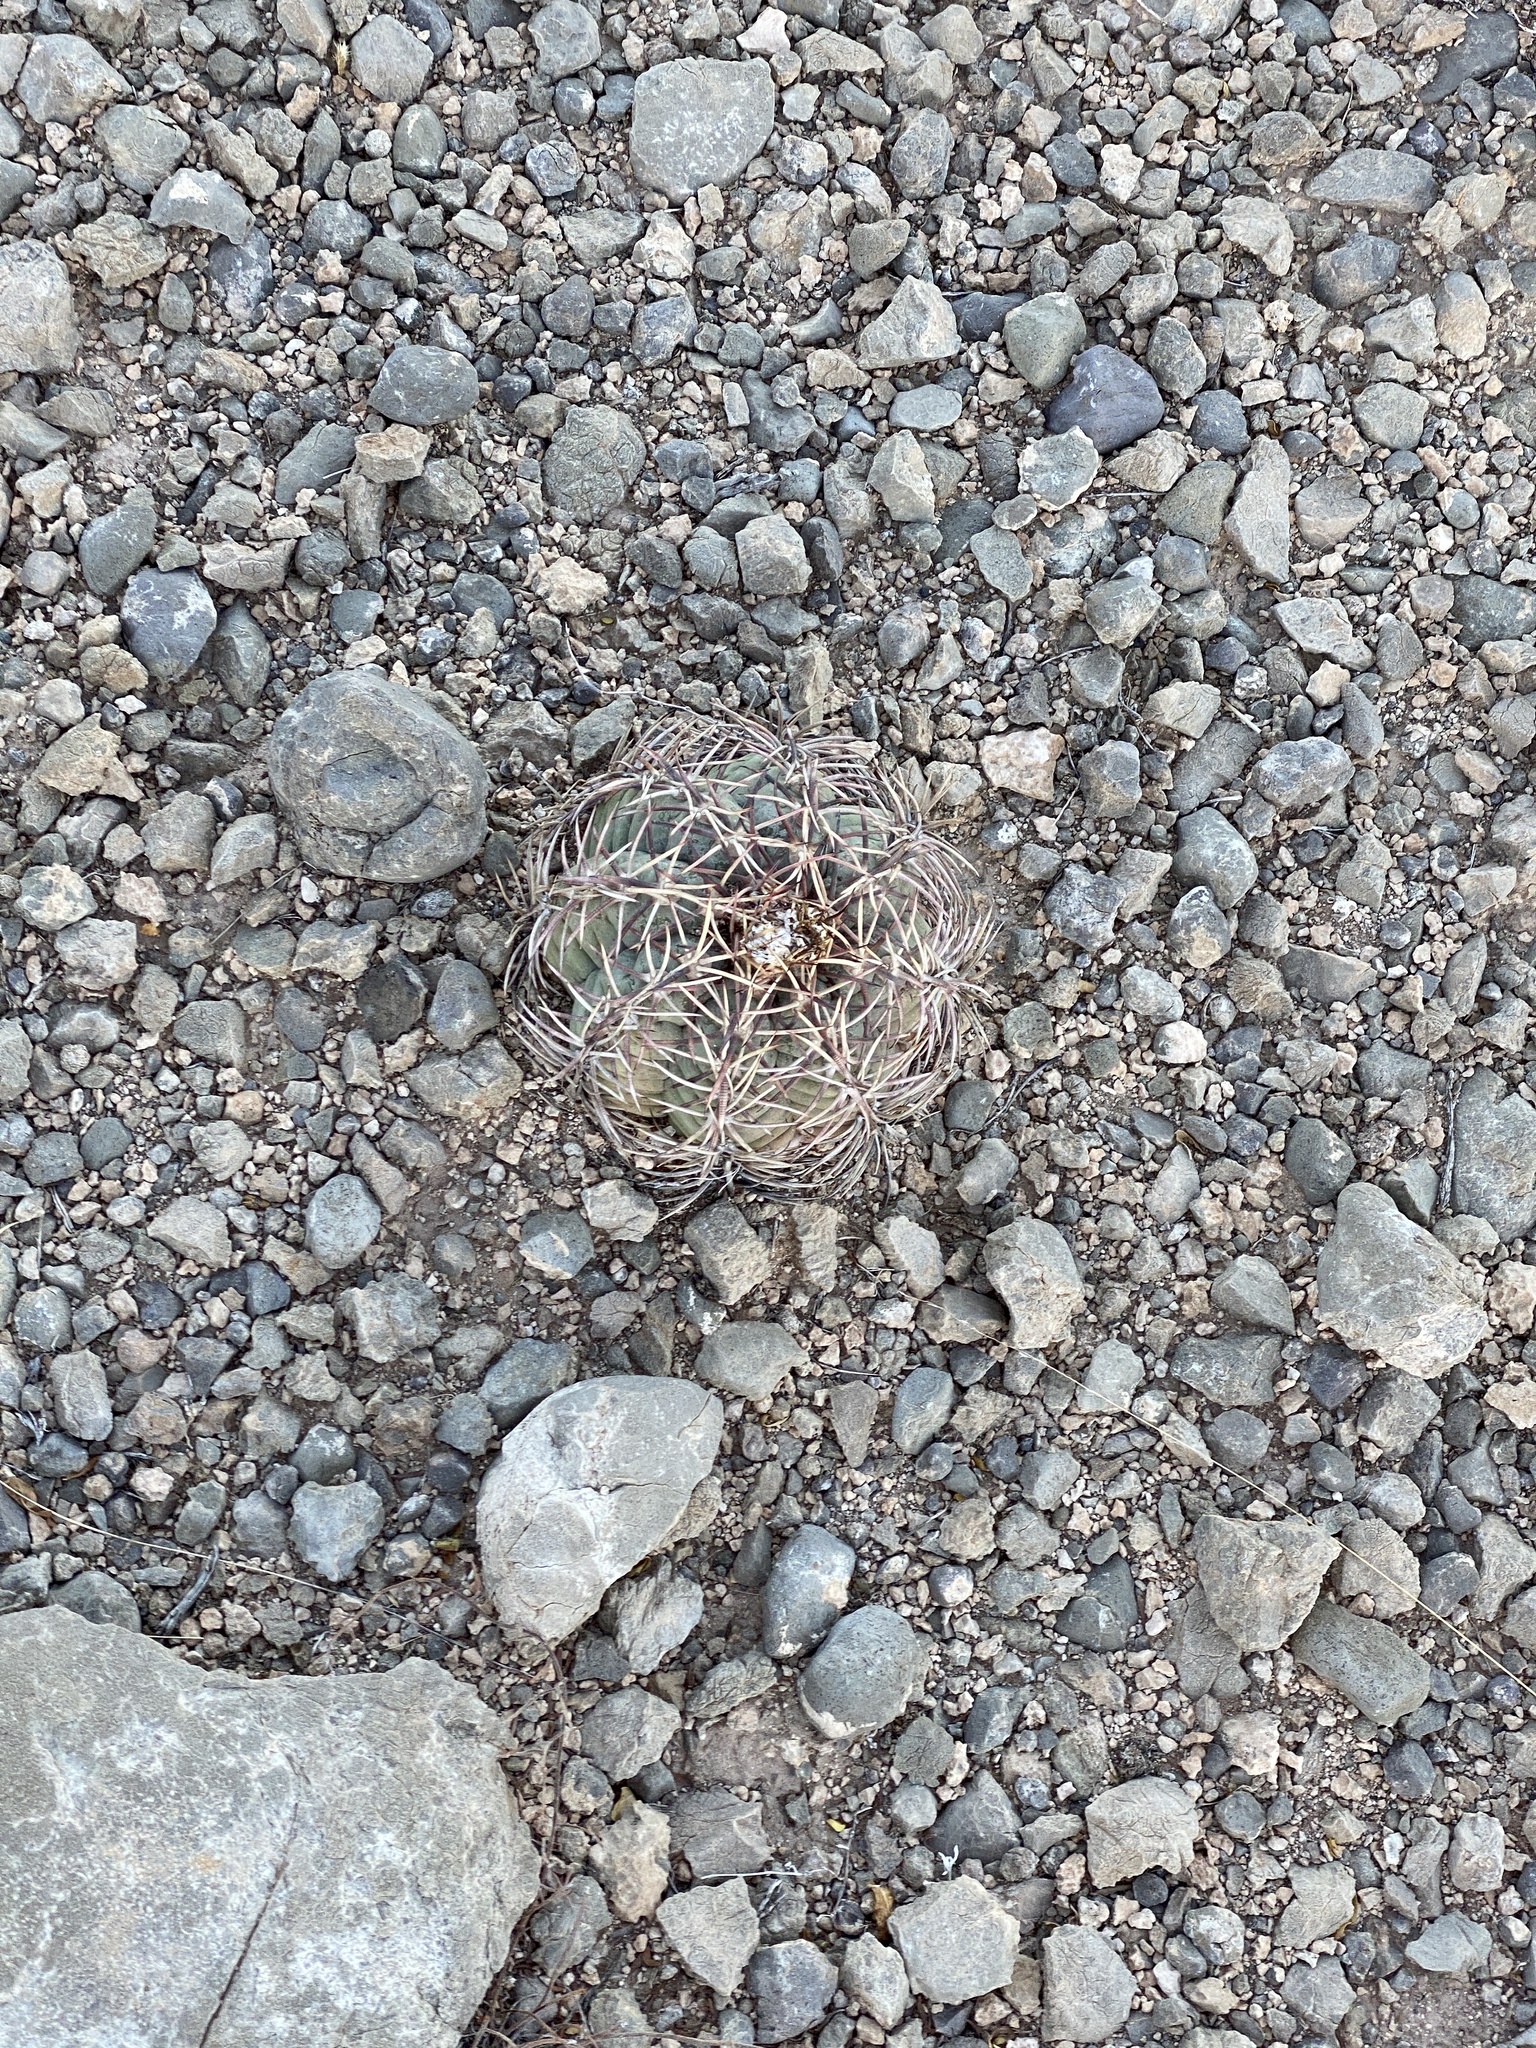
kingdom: Plantae
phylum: Tracheophyta
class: Magnoliopsida
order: Caryophyllales
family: Cactaceae
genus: Echinocactus
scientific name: Echinocactus horizonthalonius
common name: Devilshead
